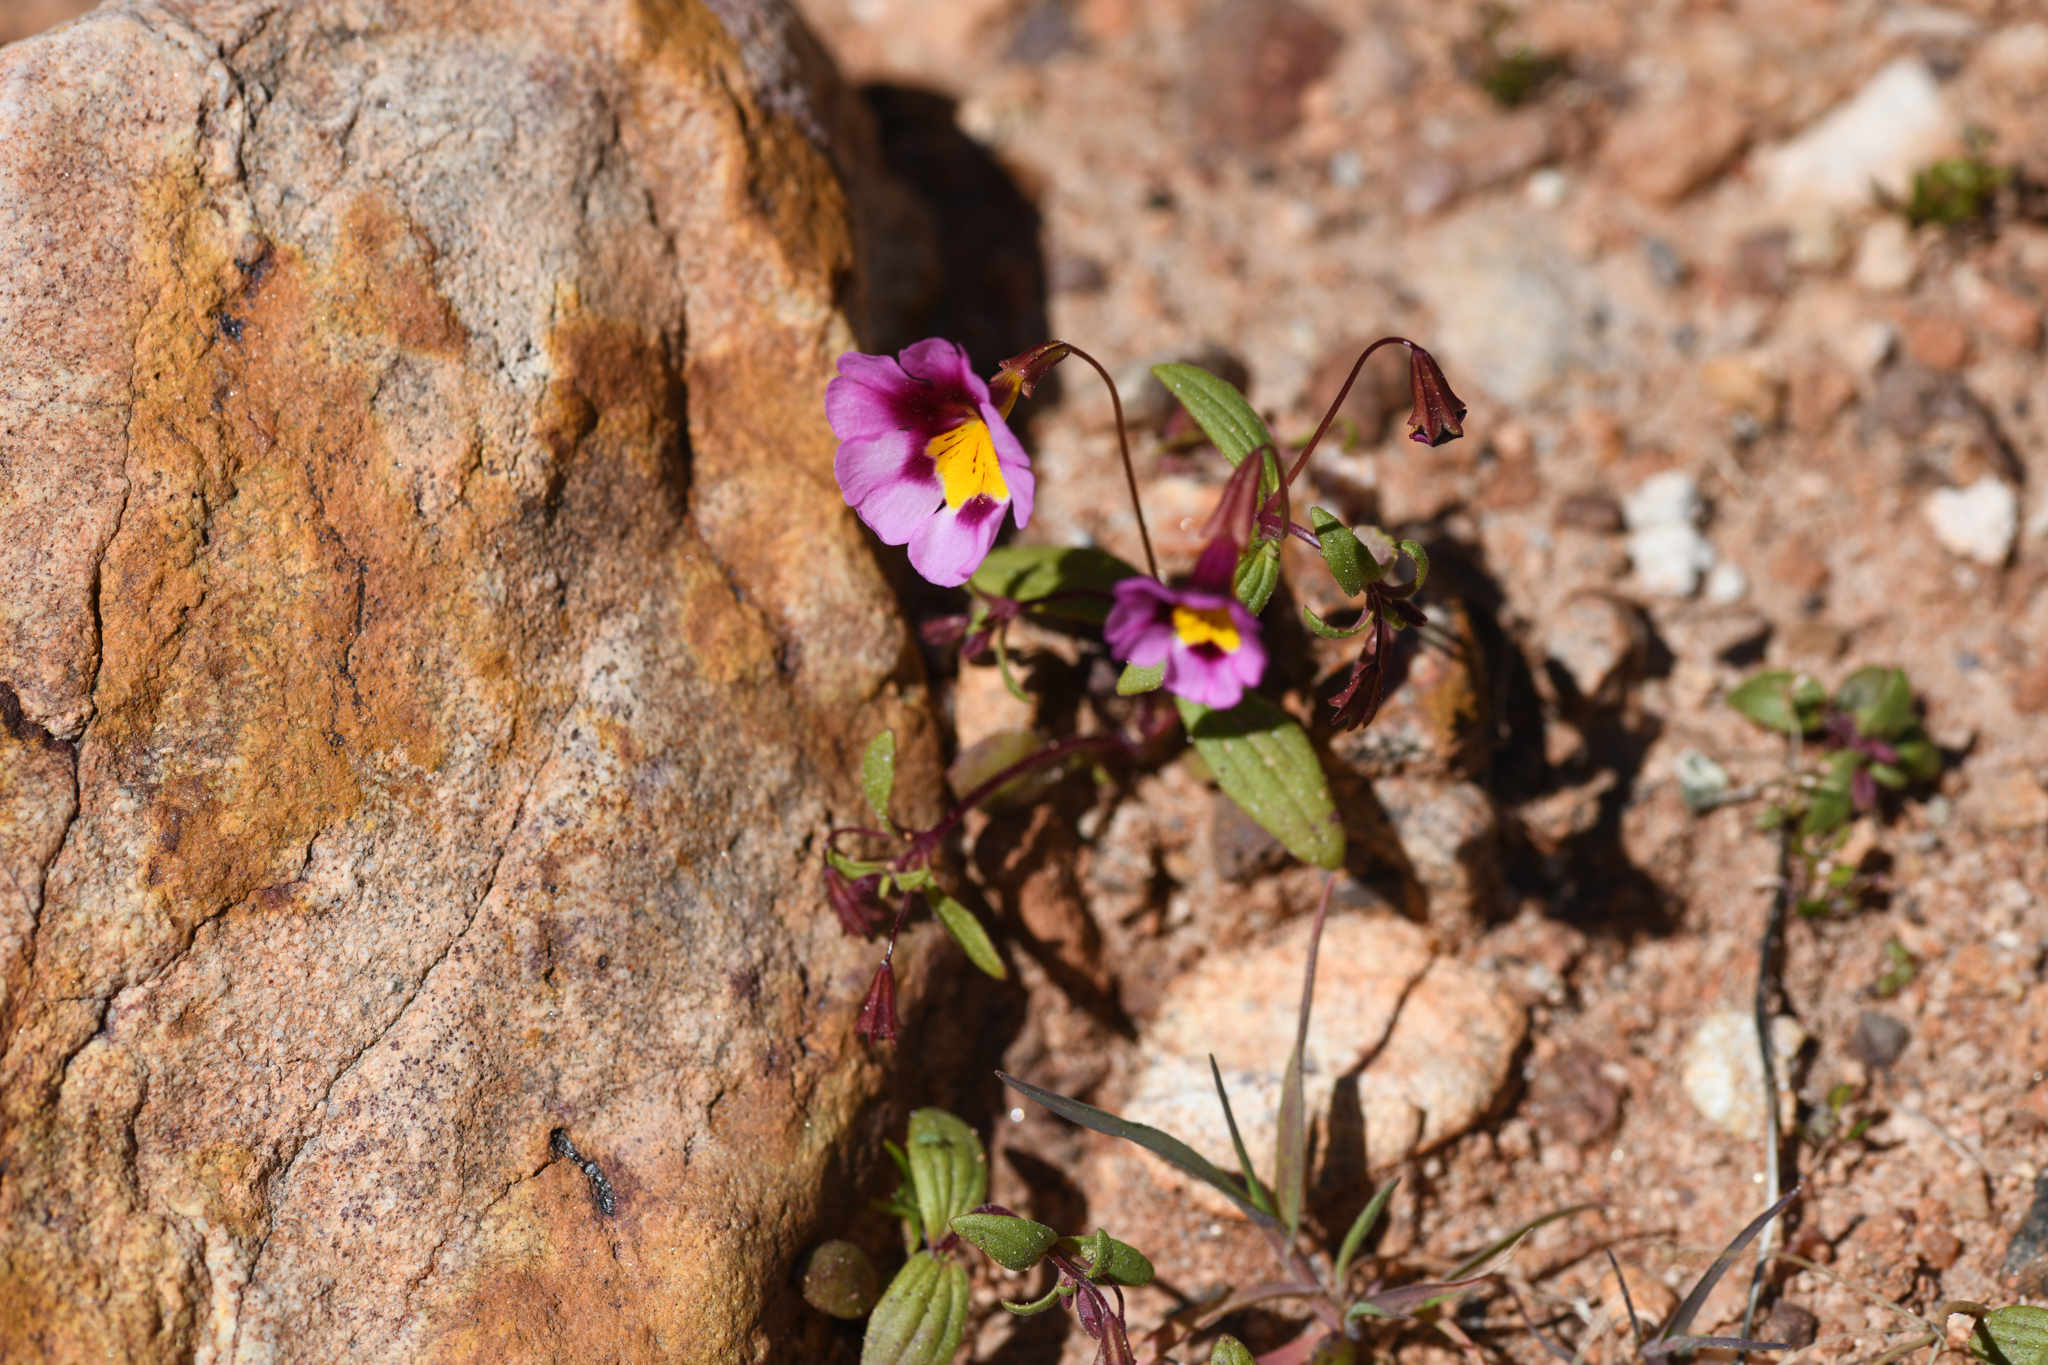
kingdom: Plantae
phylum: Tracheophyta
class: Magnoliopsida
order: Lamiales
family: Phrymaceae
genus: Erythranthe
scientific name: Erythranthe rhodopetra
